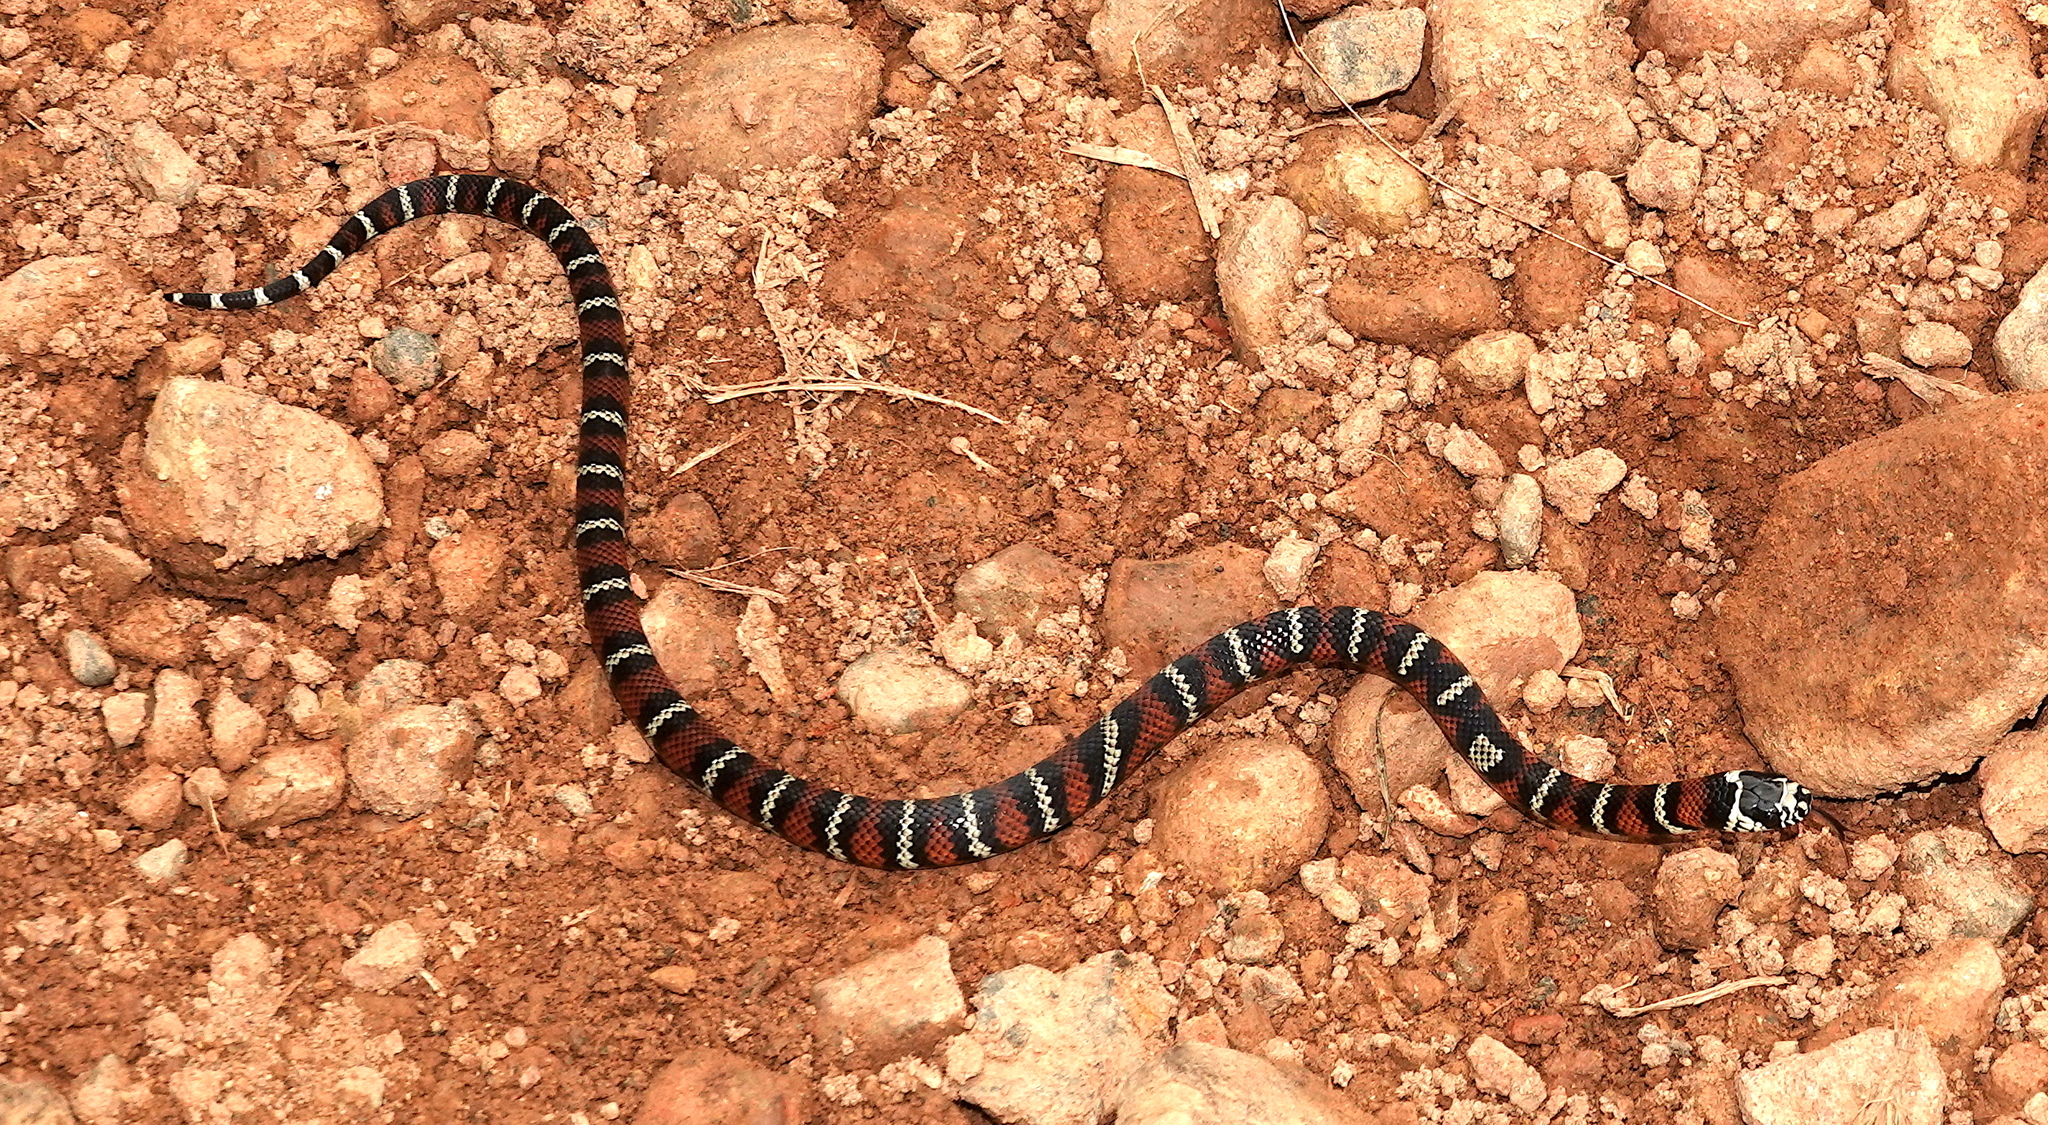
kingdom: Animalia
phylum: Chordata
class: Squamata
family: Colubridae
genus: Lampropeltis
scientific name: Lampropeltis micropholis
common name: Ecuadorian milksnake
